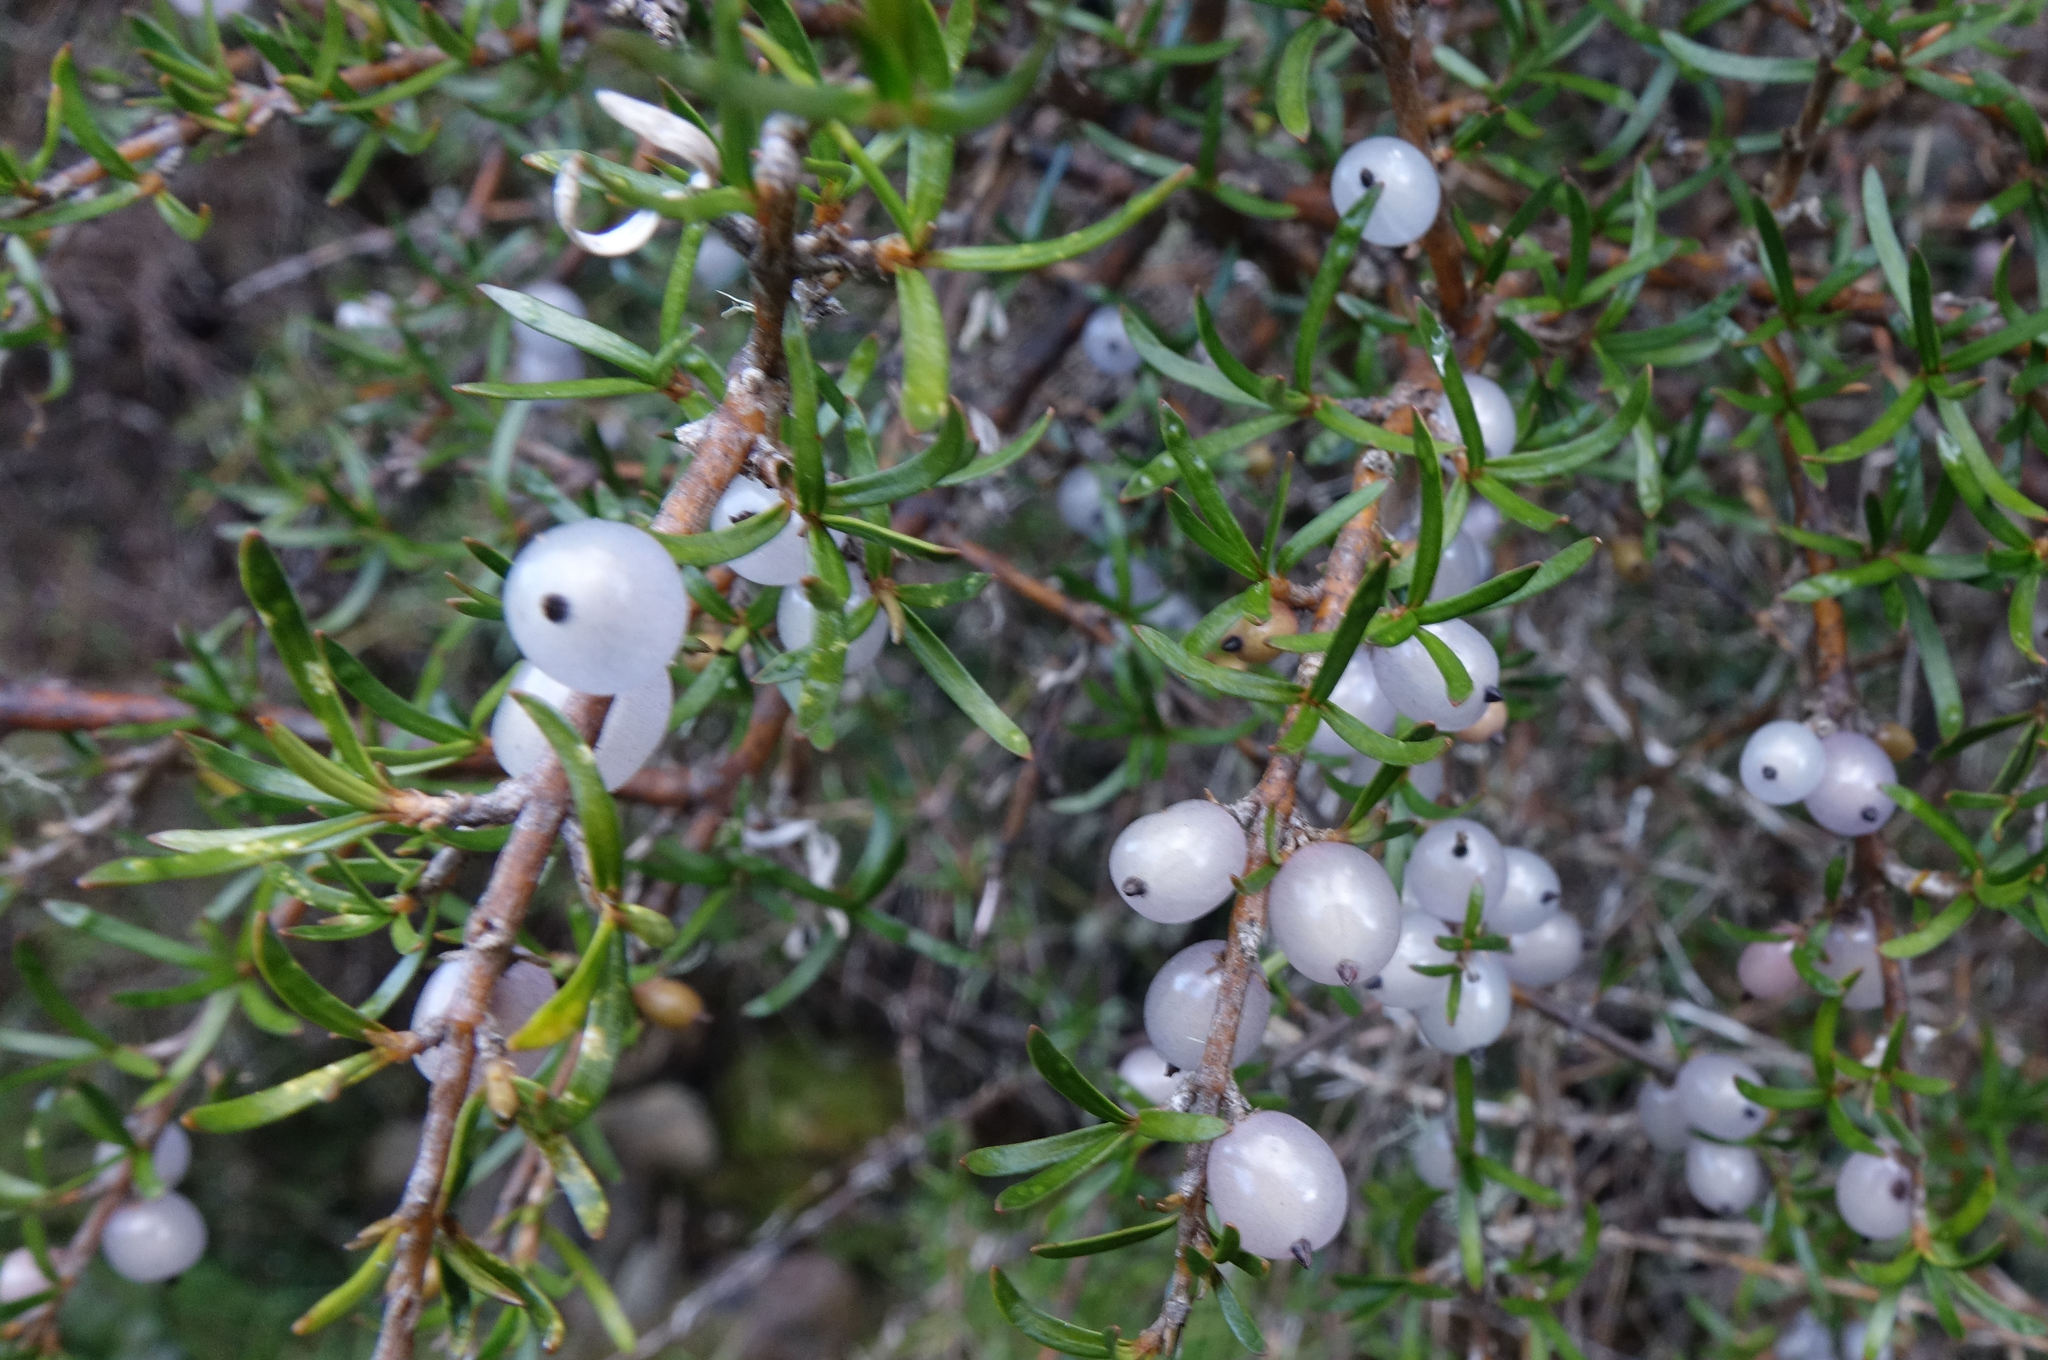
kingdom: Plantae
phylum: Tracheophyta
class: Magnoliopsida
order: Gentianales
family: Rubiaceae
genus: Coprosma
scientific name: Coprosma rugosa
